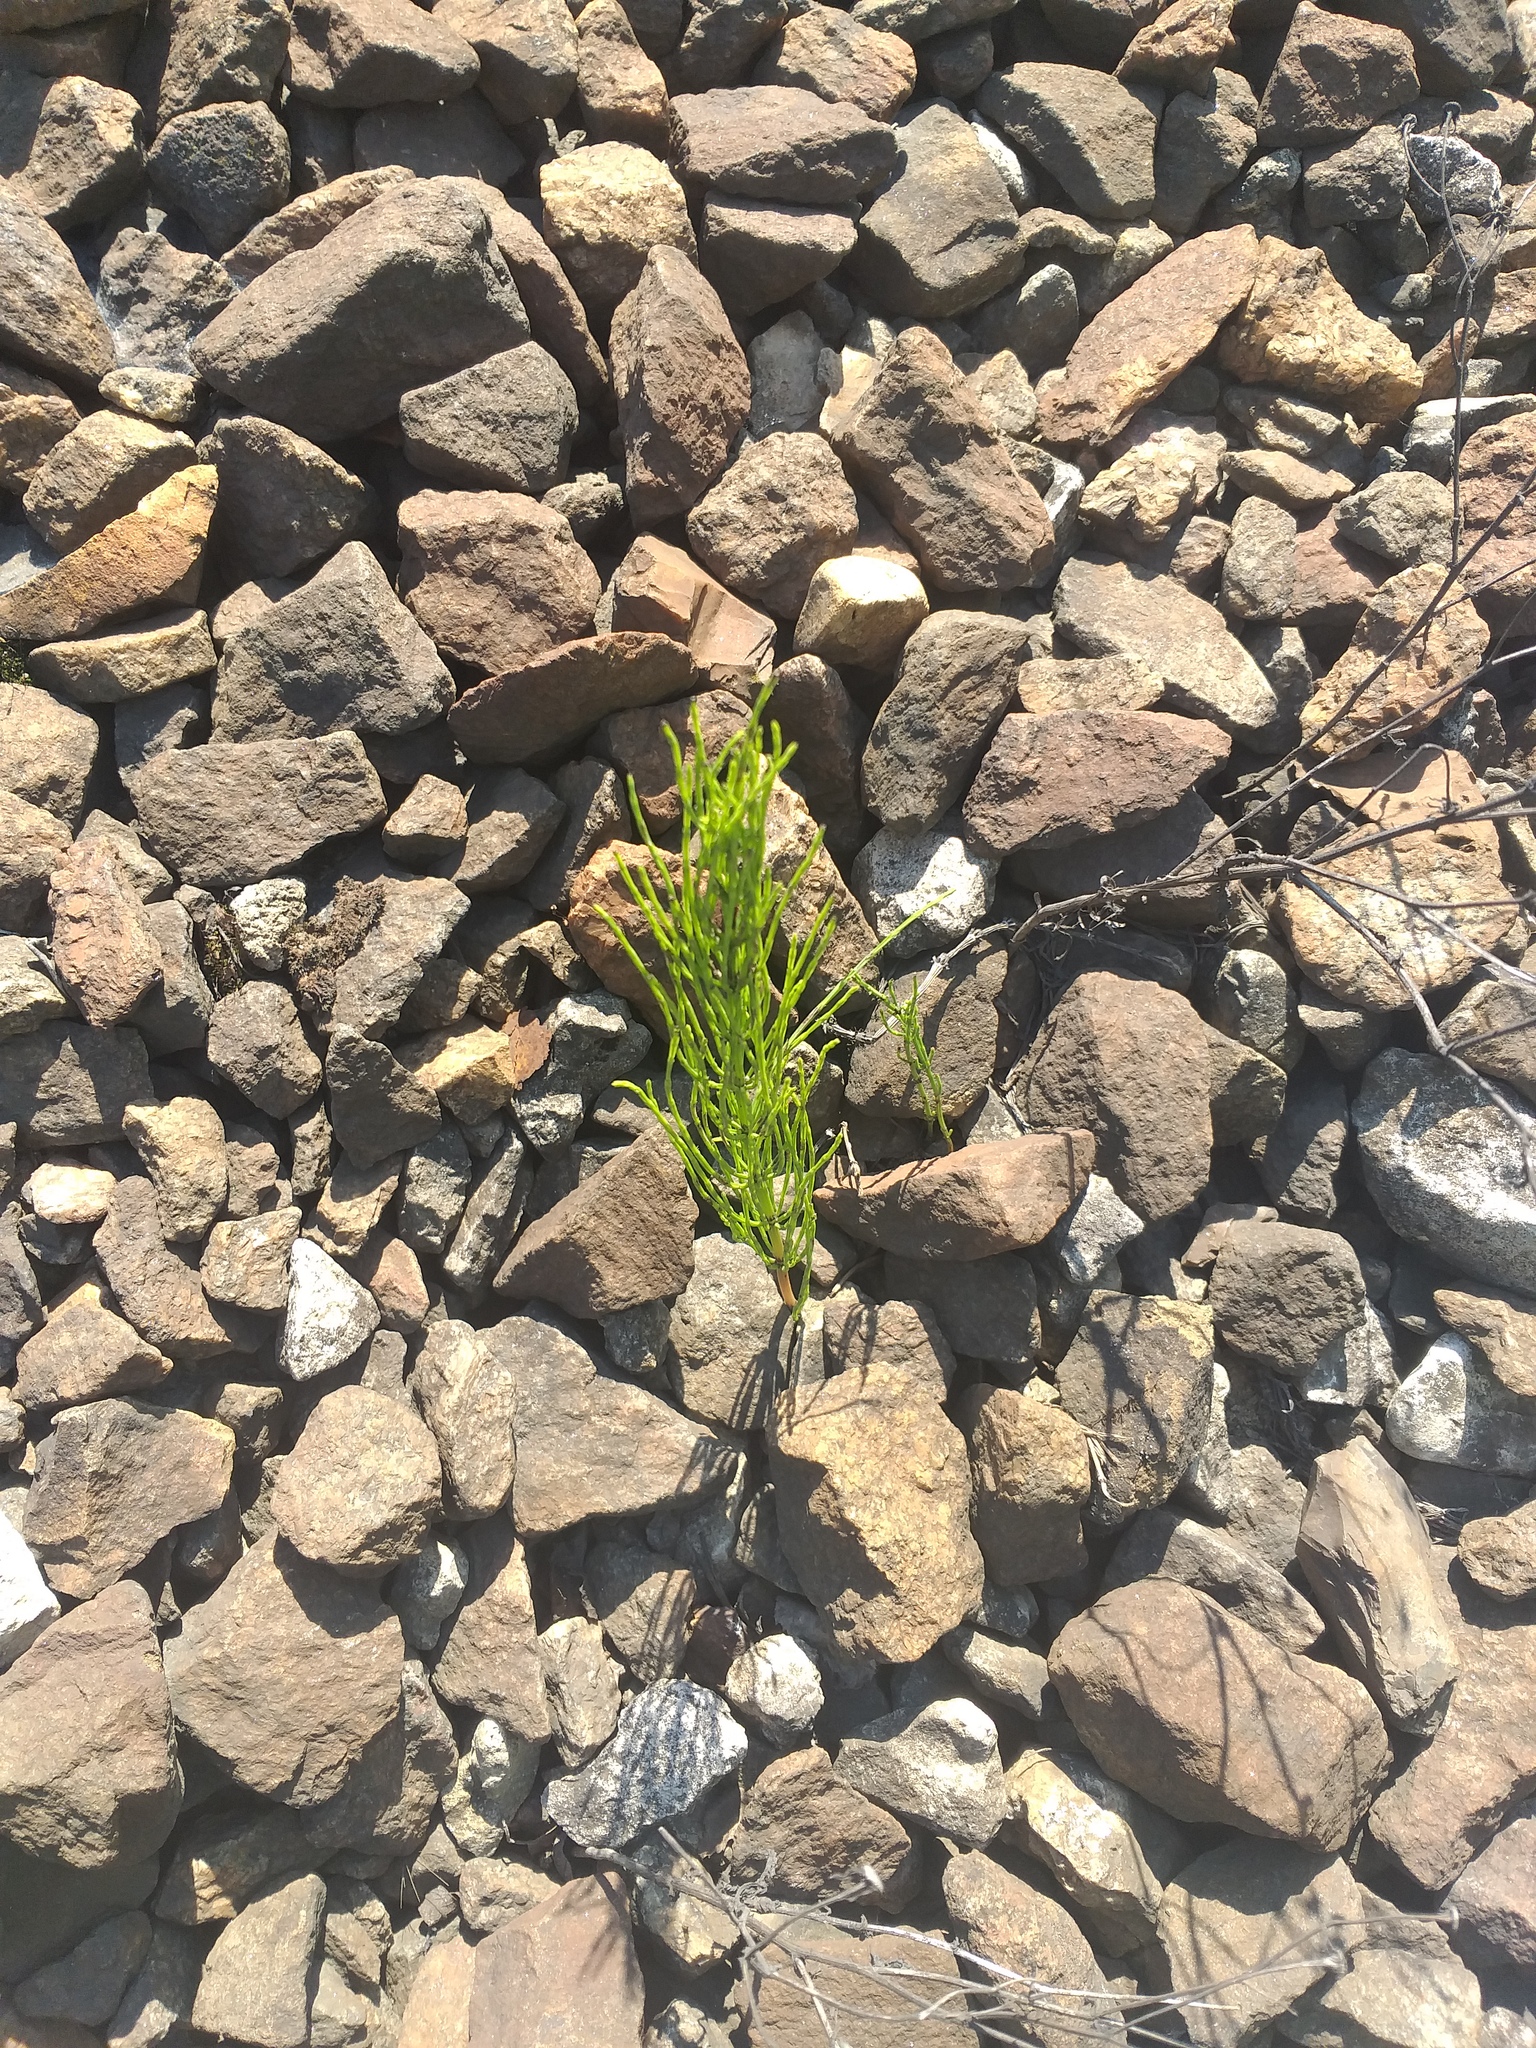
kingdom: Plantae
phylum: Tracheophyta
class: Polypodiopsida
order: Equisetales
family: Equisetaceae
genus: Equisetum
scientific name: Equisetum arvense
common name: Field horsetail
